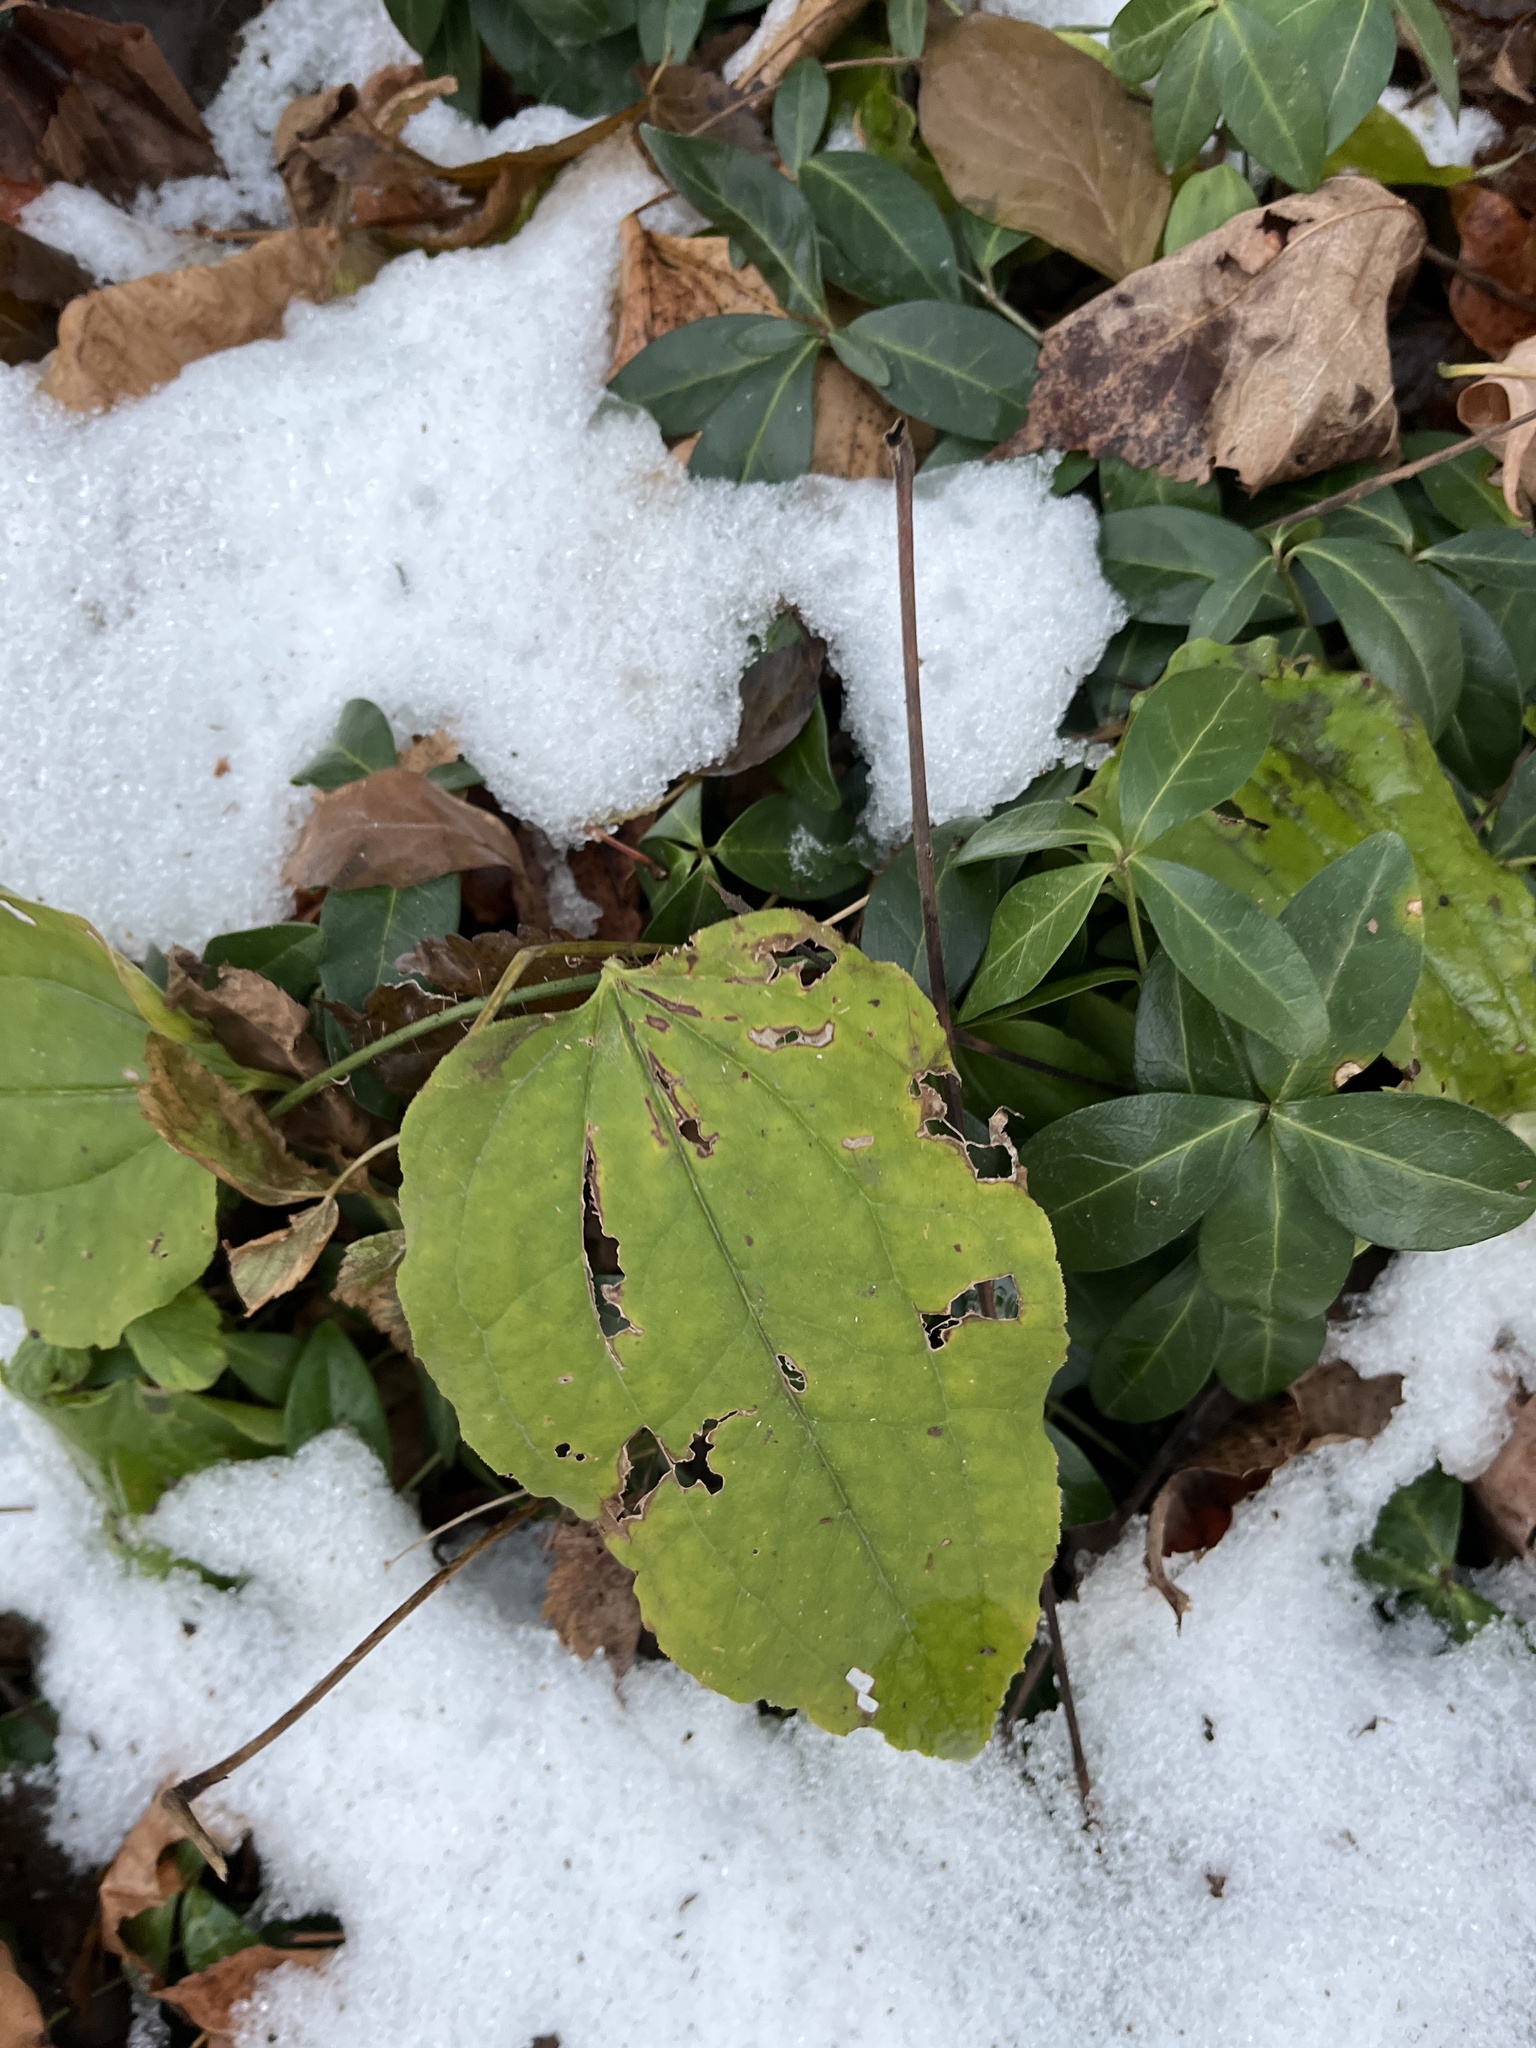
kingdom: Plantae
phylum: Tracheophyta
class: Liliopsida
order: Liliales
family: Smilacaceae
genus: Smilax
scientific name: Smilax tamnoides
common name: Hellfetter
